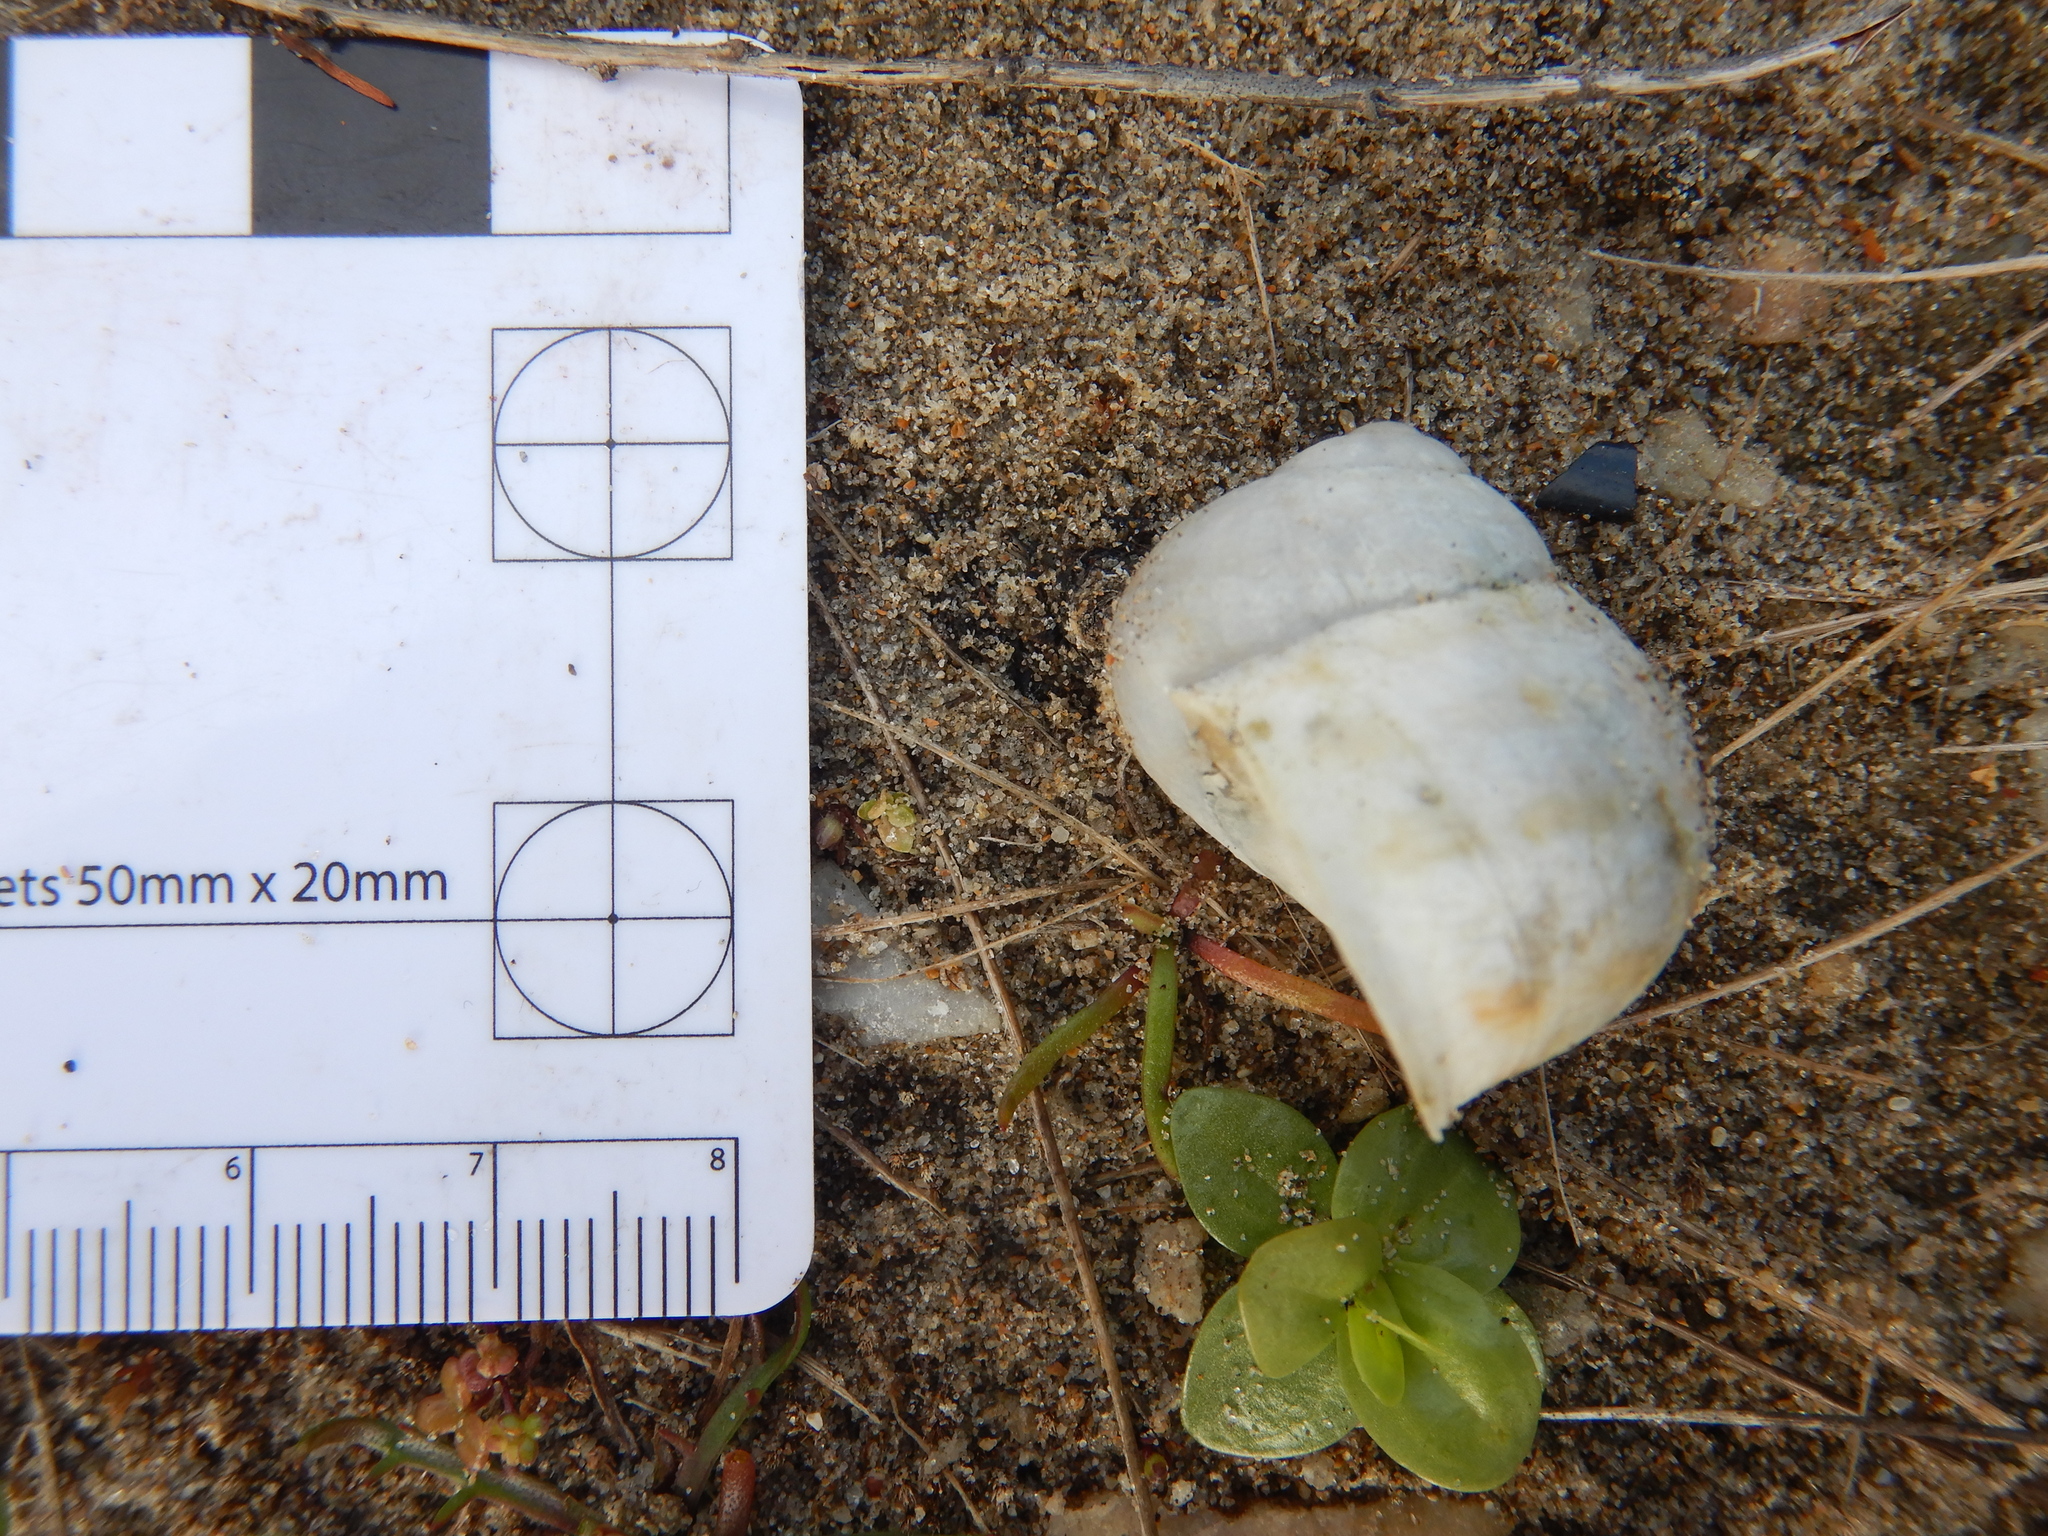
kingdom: Animalia
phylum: Mollusca
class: Gastropoda
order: Stylommatophora
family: Helicidae
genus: Cornu
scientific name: Cornu aspersum
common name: Brown garden snail
